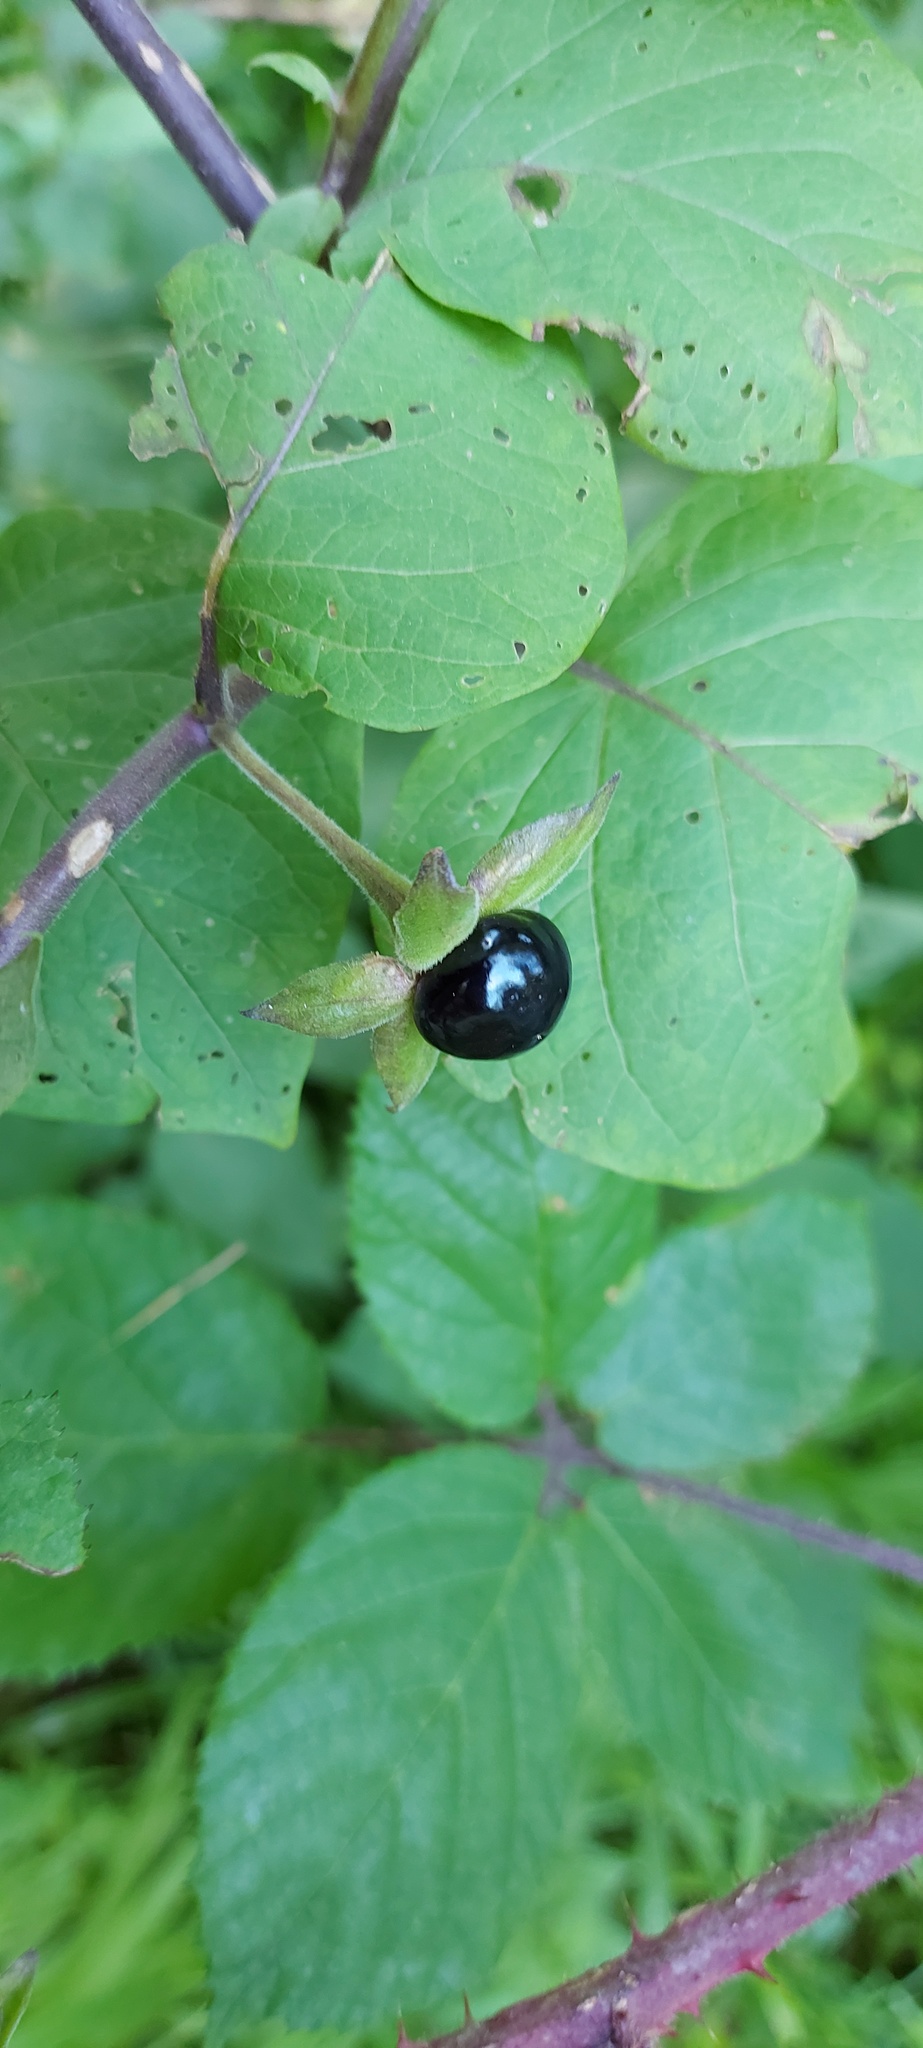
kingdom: Plantae
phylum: Tracheophyta
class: Magnoliopsida
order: Solanales
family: Solanaceae
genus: Atropa
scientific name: Atropa belladonna
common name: Deadly nightshade
